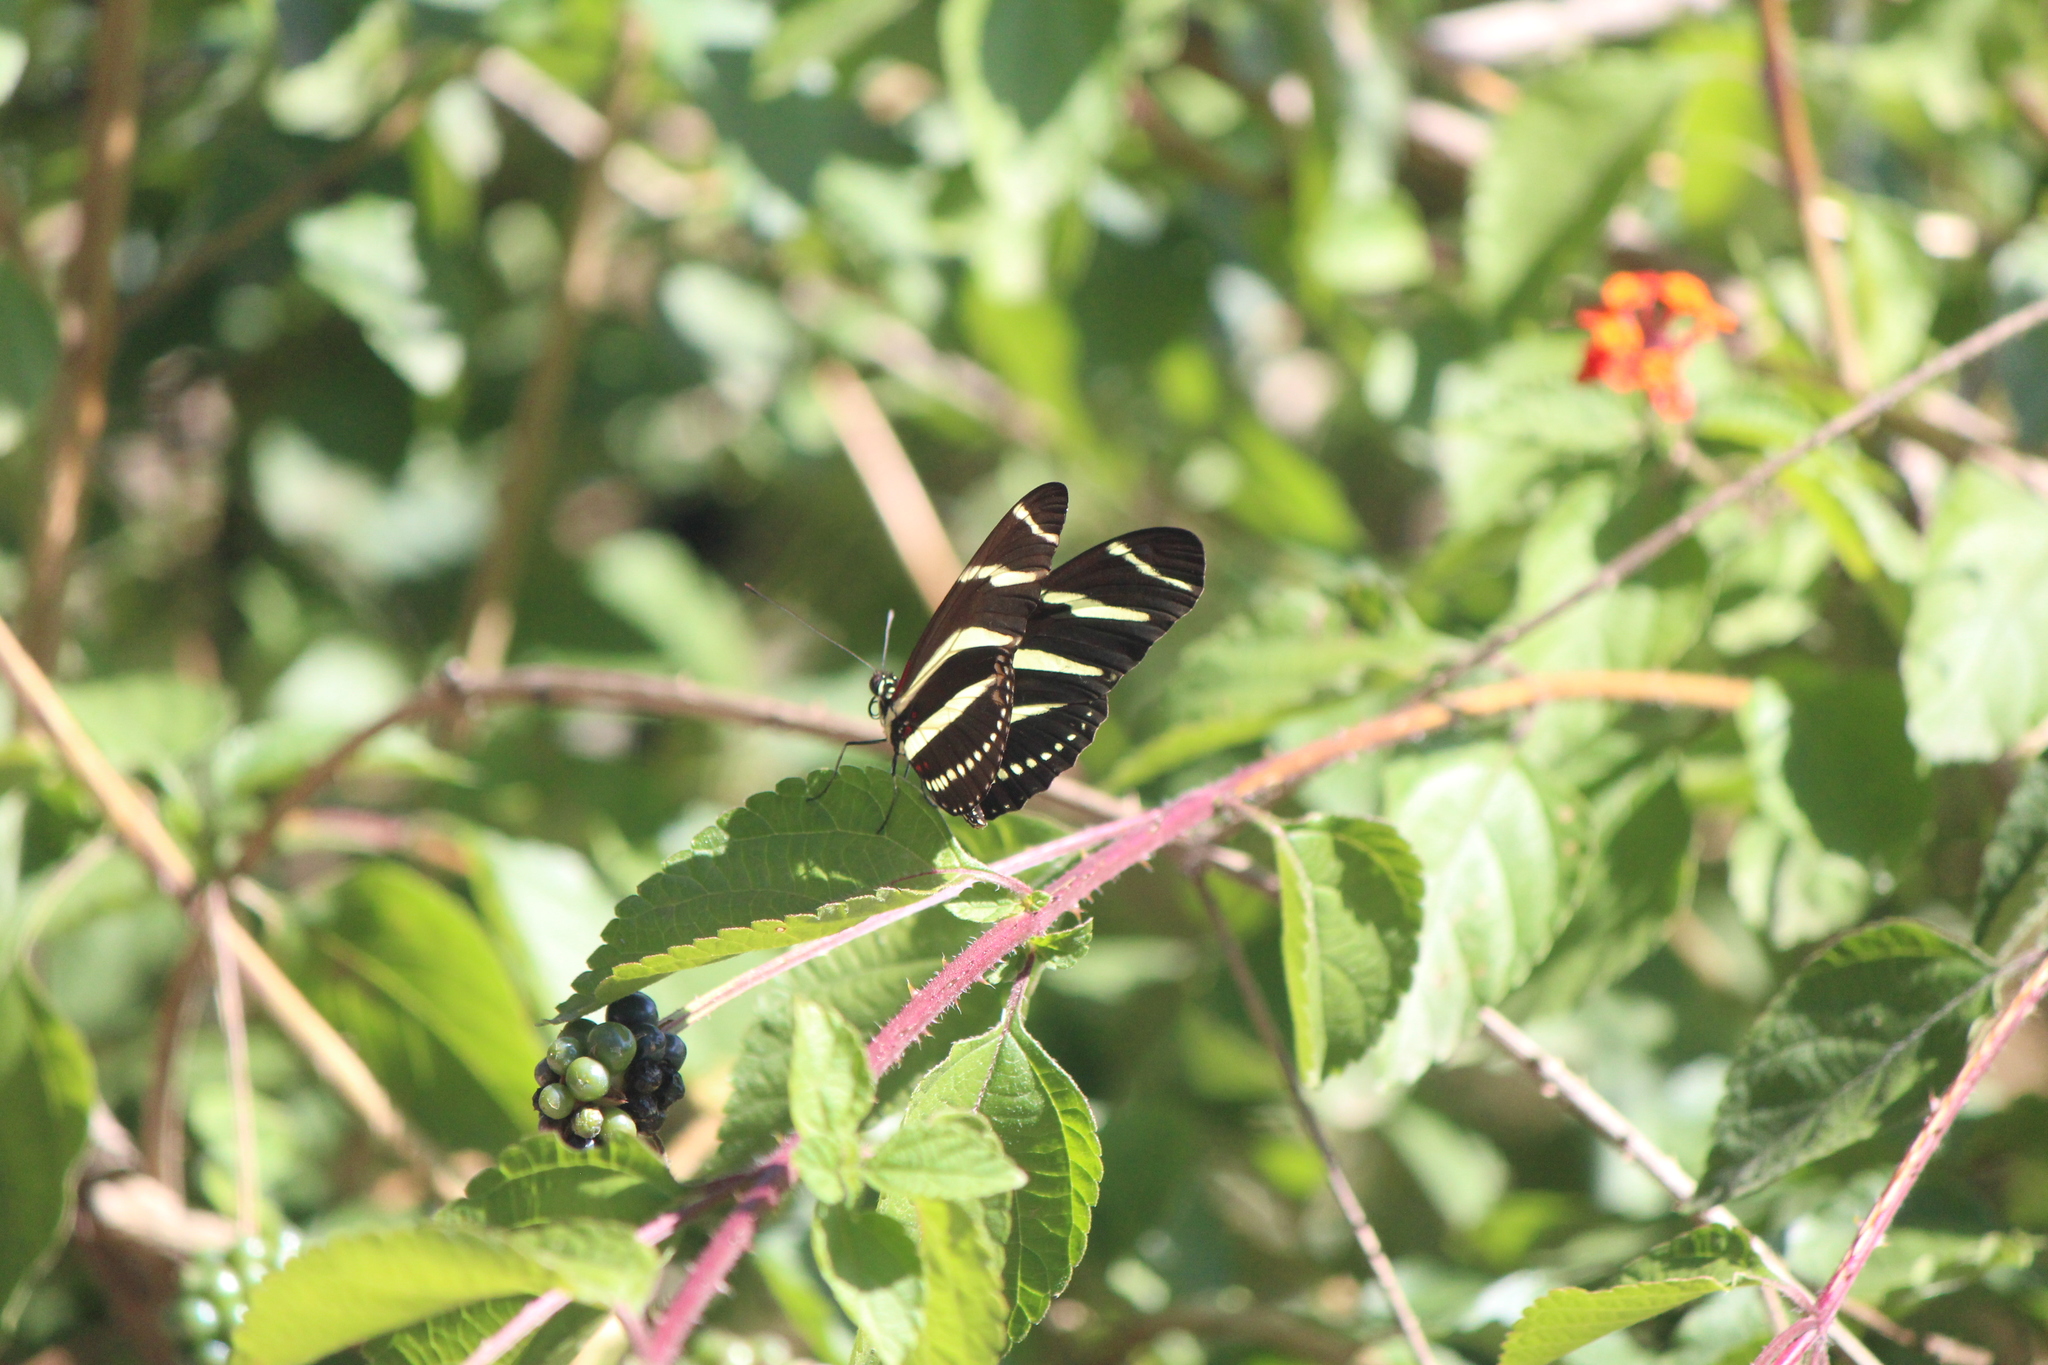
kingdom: Animalia
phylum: Arthropoda
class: Insecta
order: Lepidoptera
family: Nymphalidae
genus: Heliconius
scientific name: Heliconius charithonia
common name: Zebra long wing
